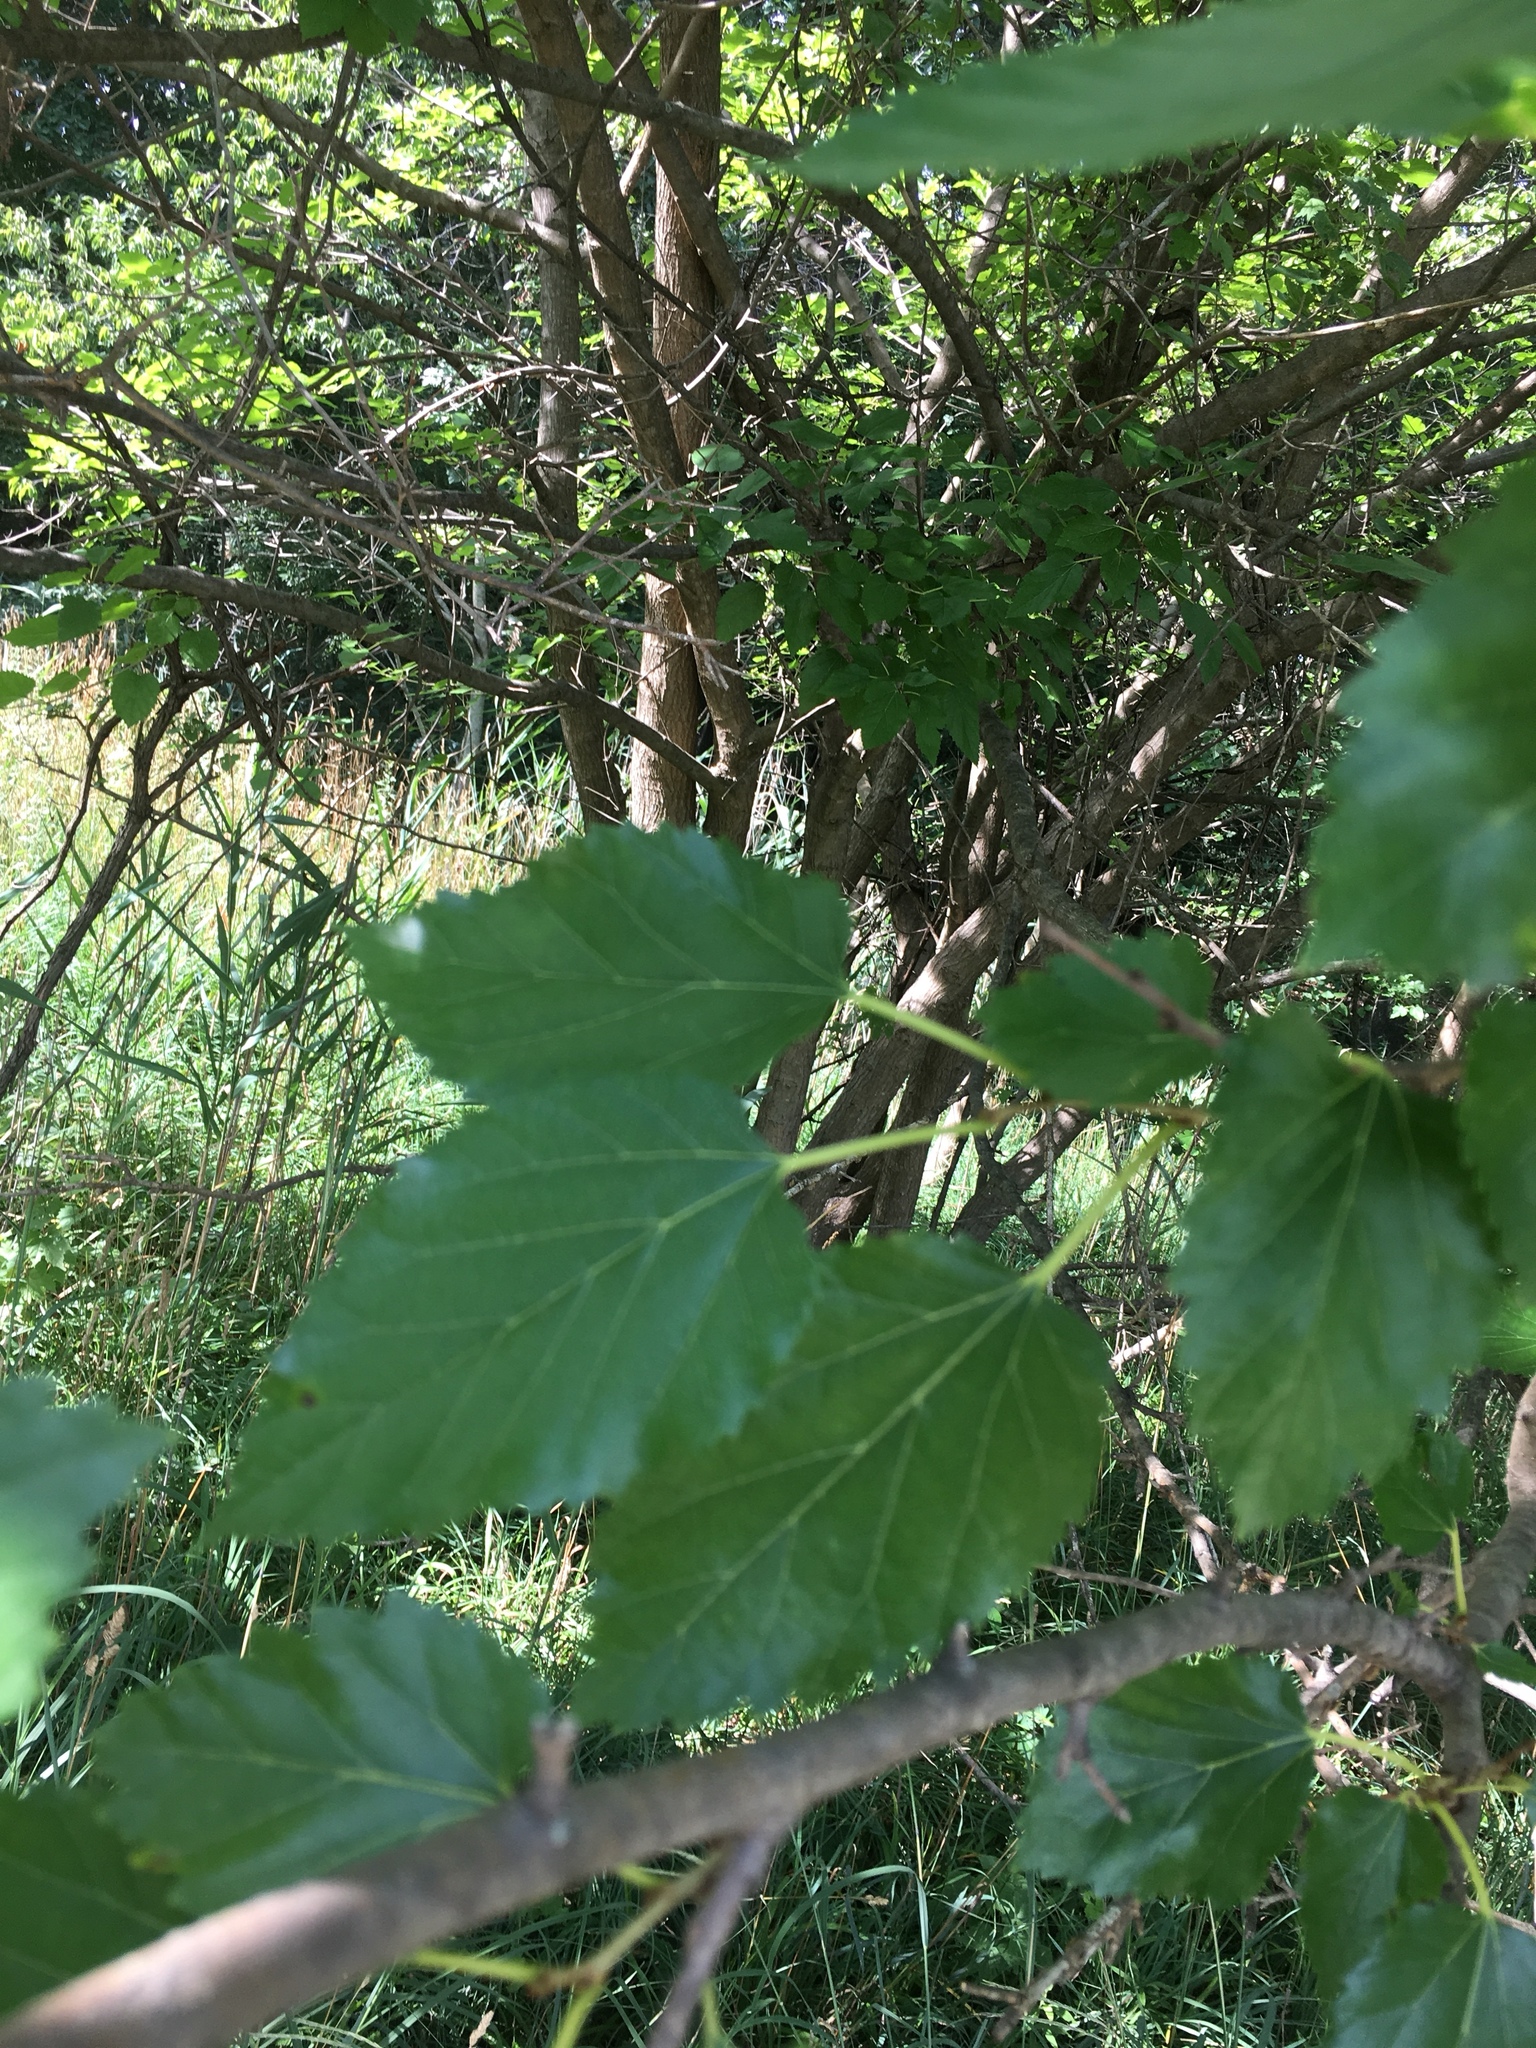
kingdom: Plantae
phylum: Tracheophyta
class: Magnoliopsida
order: Rosales
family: Moraceae
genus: Morus
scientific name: Morus alba
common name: White mulberry
